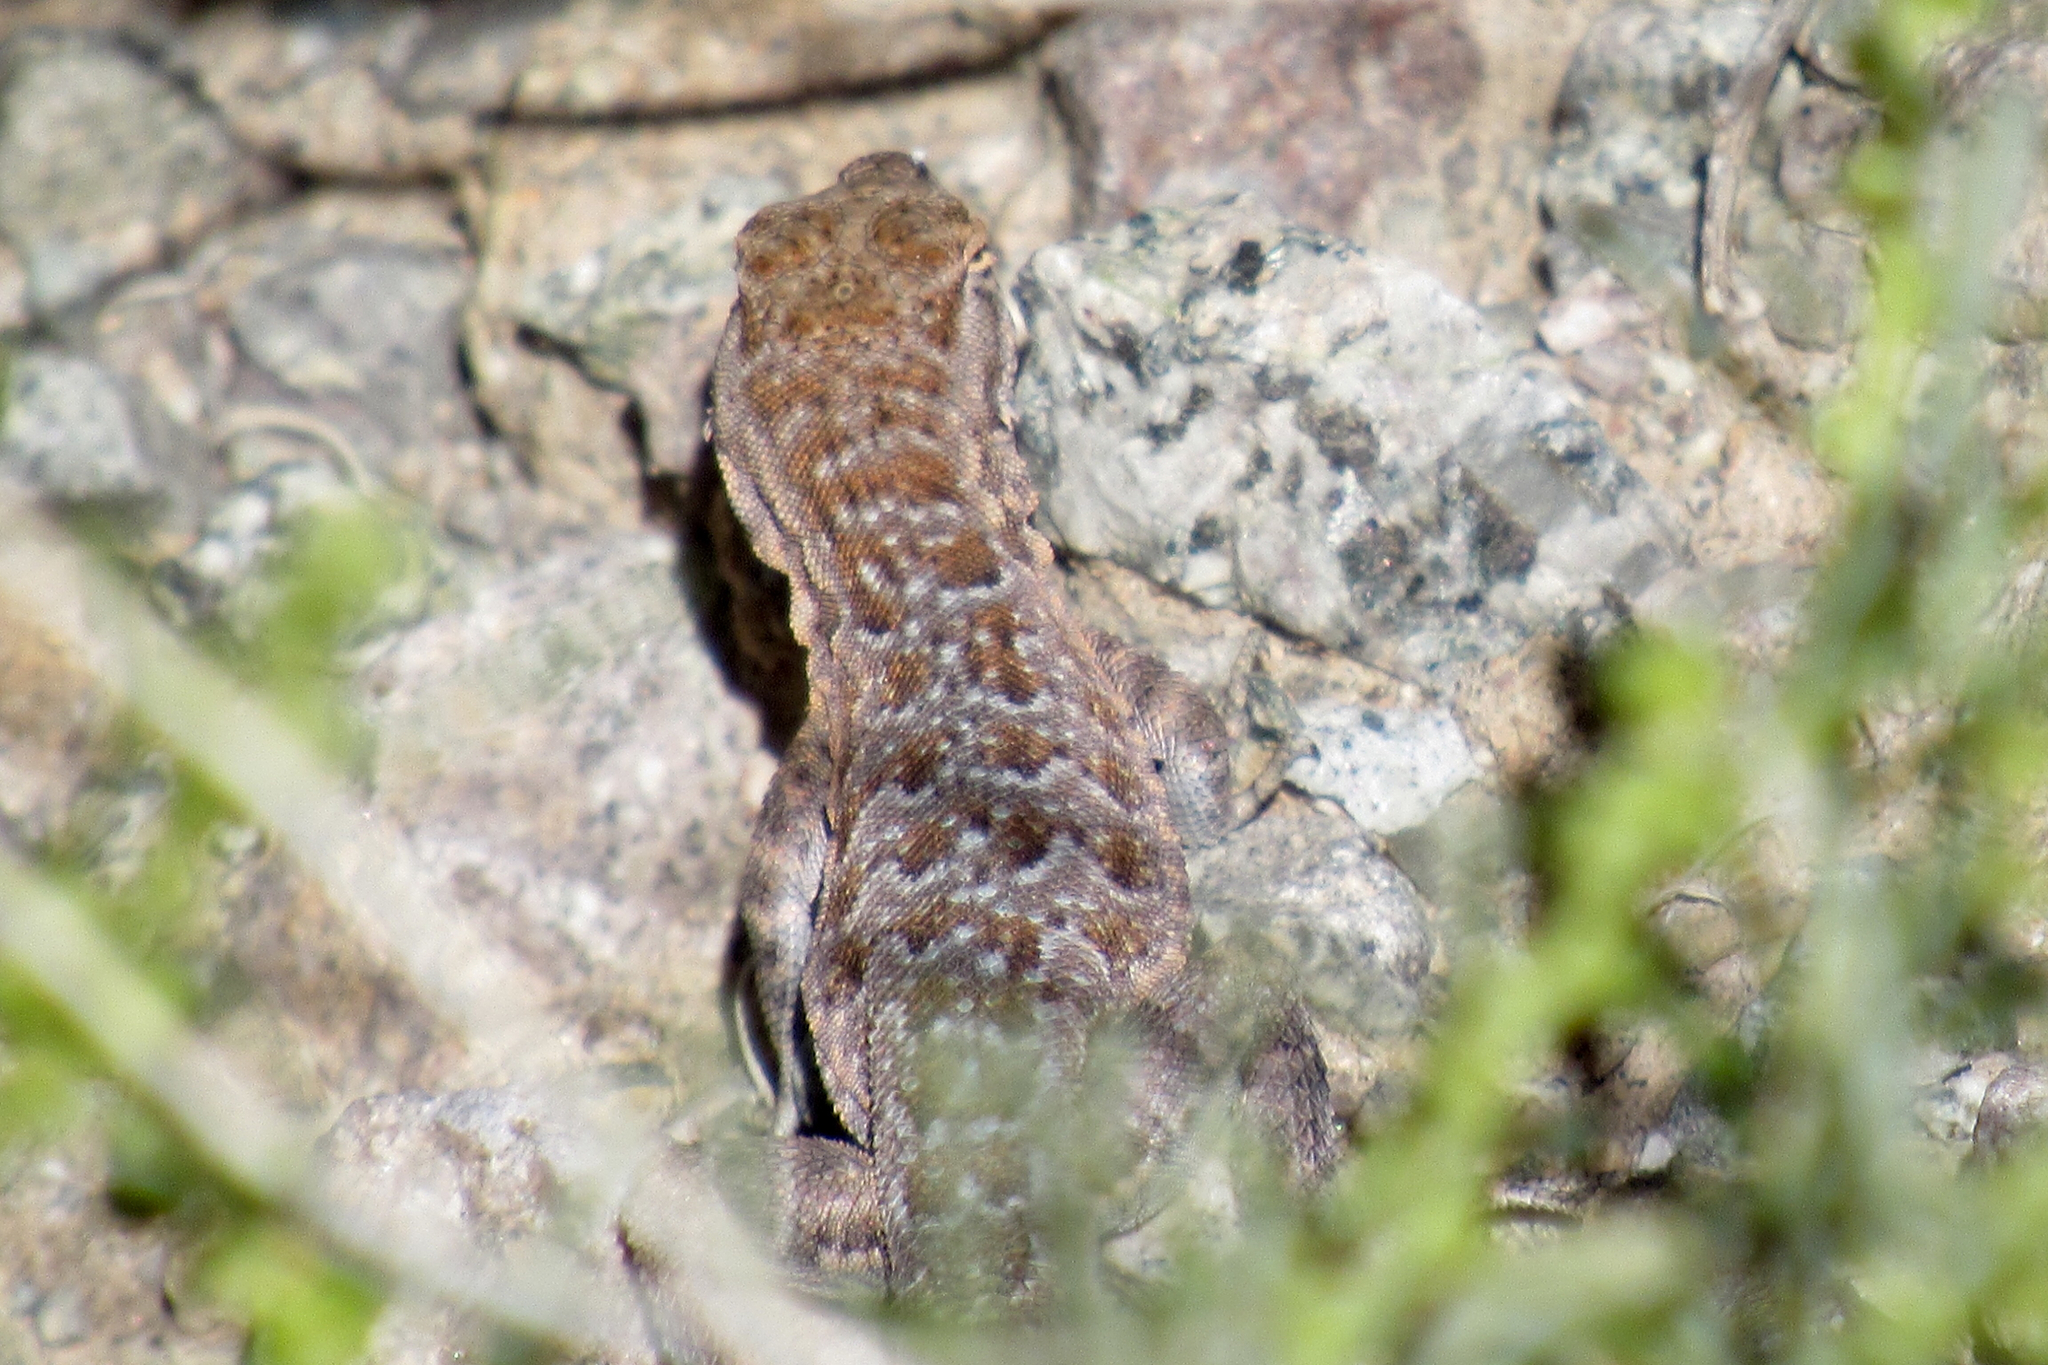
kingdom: Animalia
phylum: Chordata
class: Squamata
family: Phrynosomatidae
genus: Uta
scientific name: Uta stansburiana
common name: Side-blotched lizard
